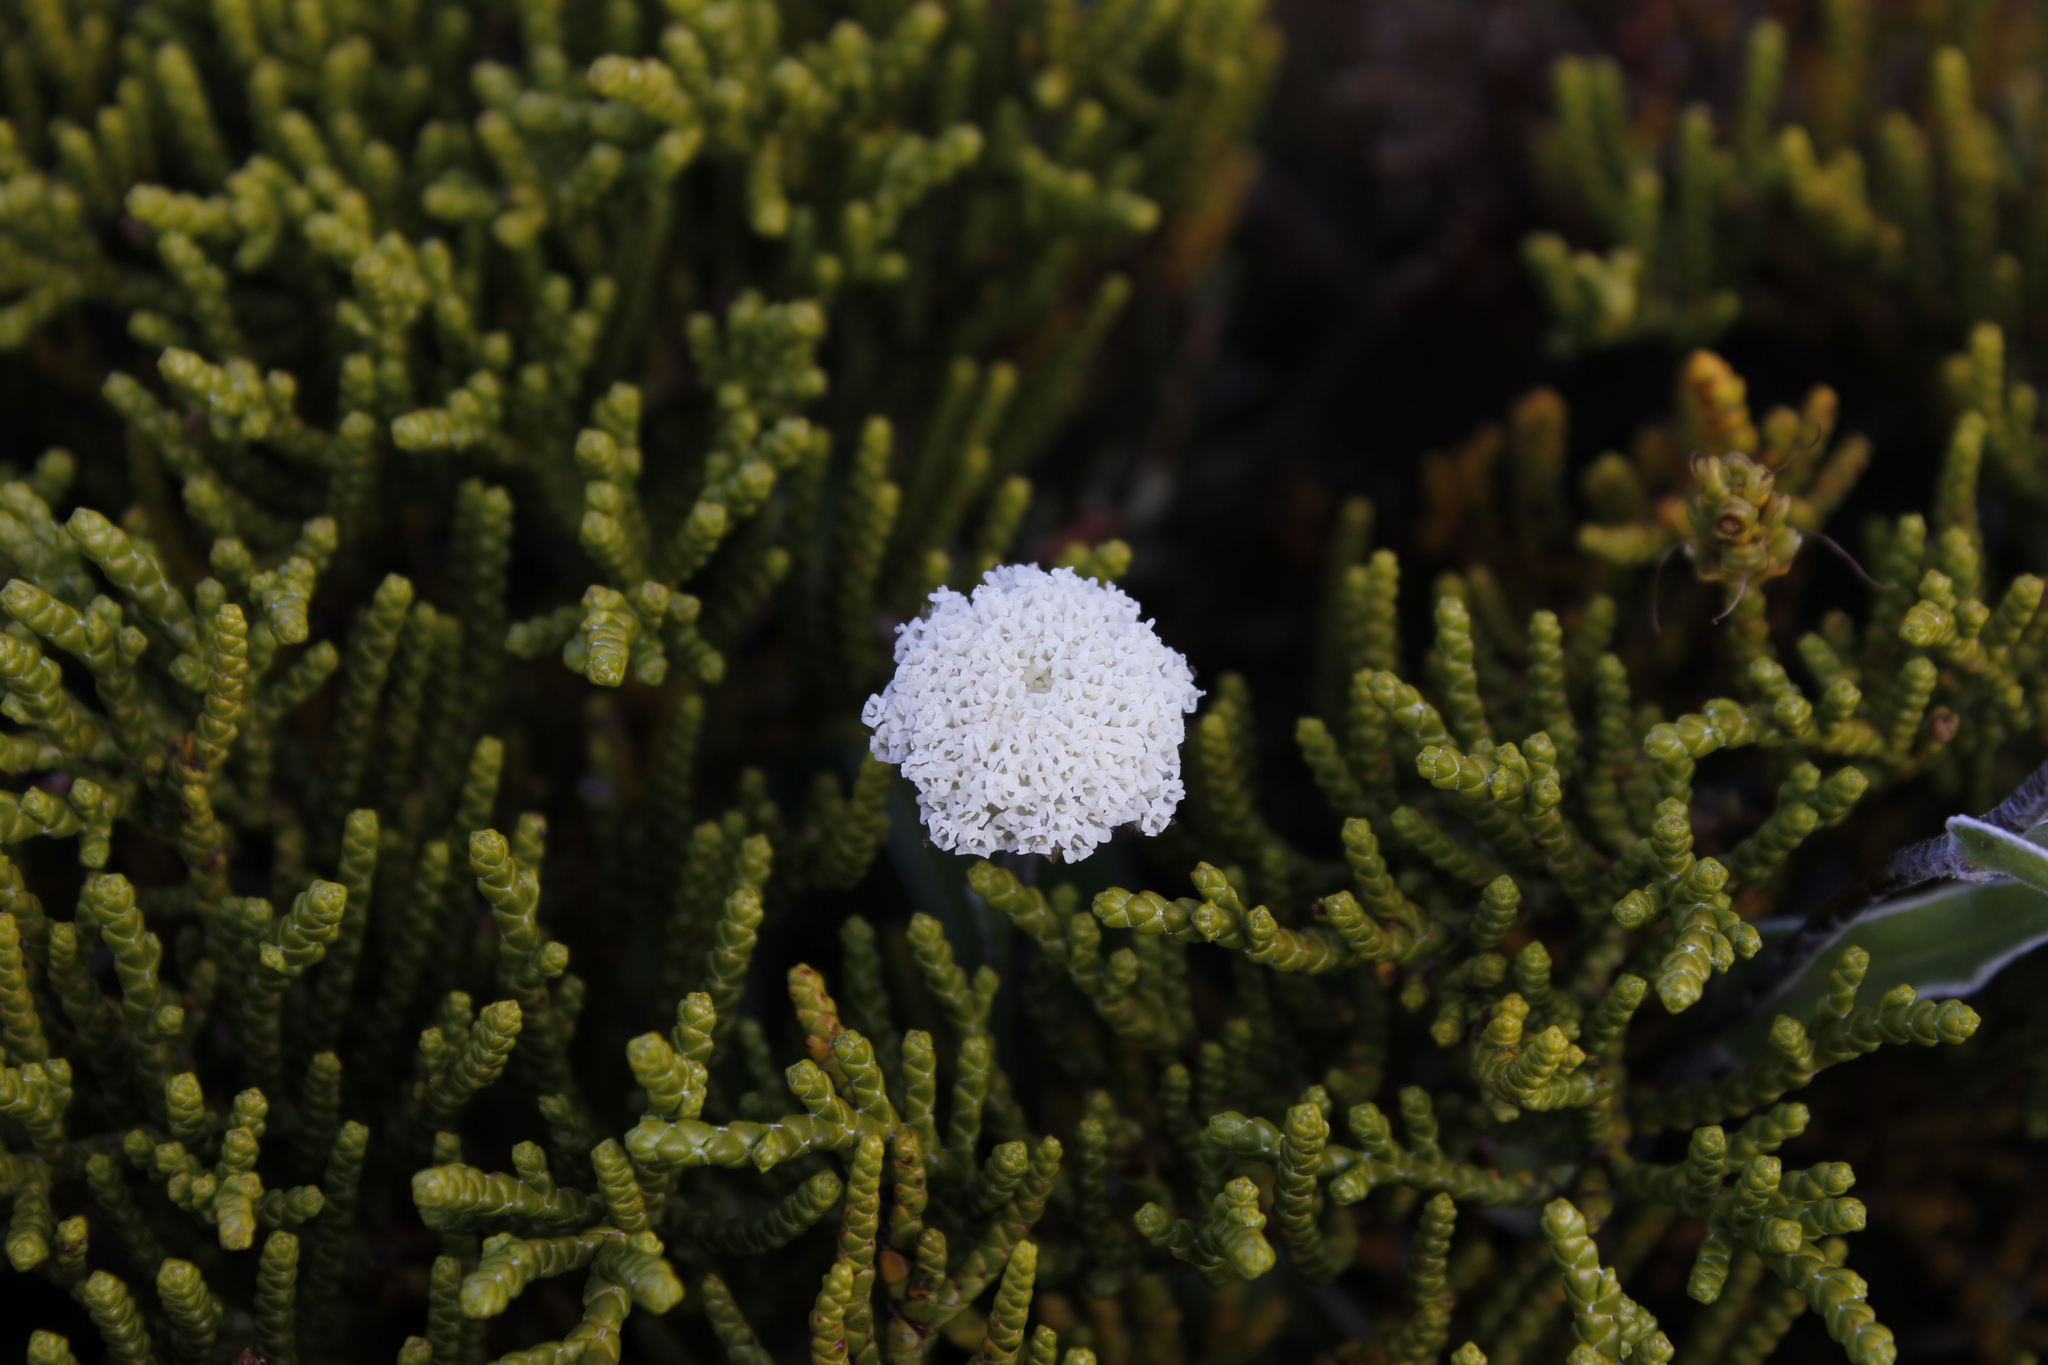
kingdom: Plantae
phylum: Tracheophyta
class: Magnoliopsida
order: Asterales
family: Asteraceae
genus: Craspedia
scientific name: Craspedia uniflora
